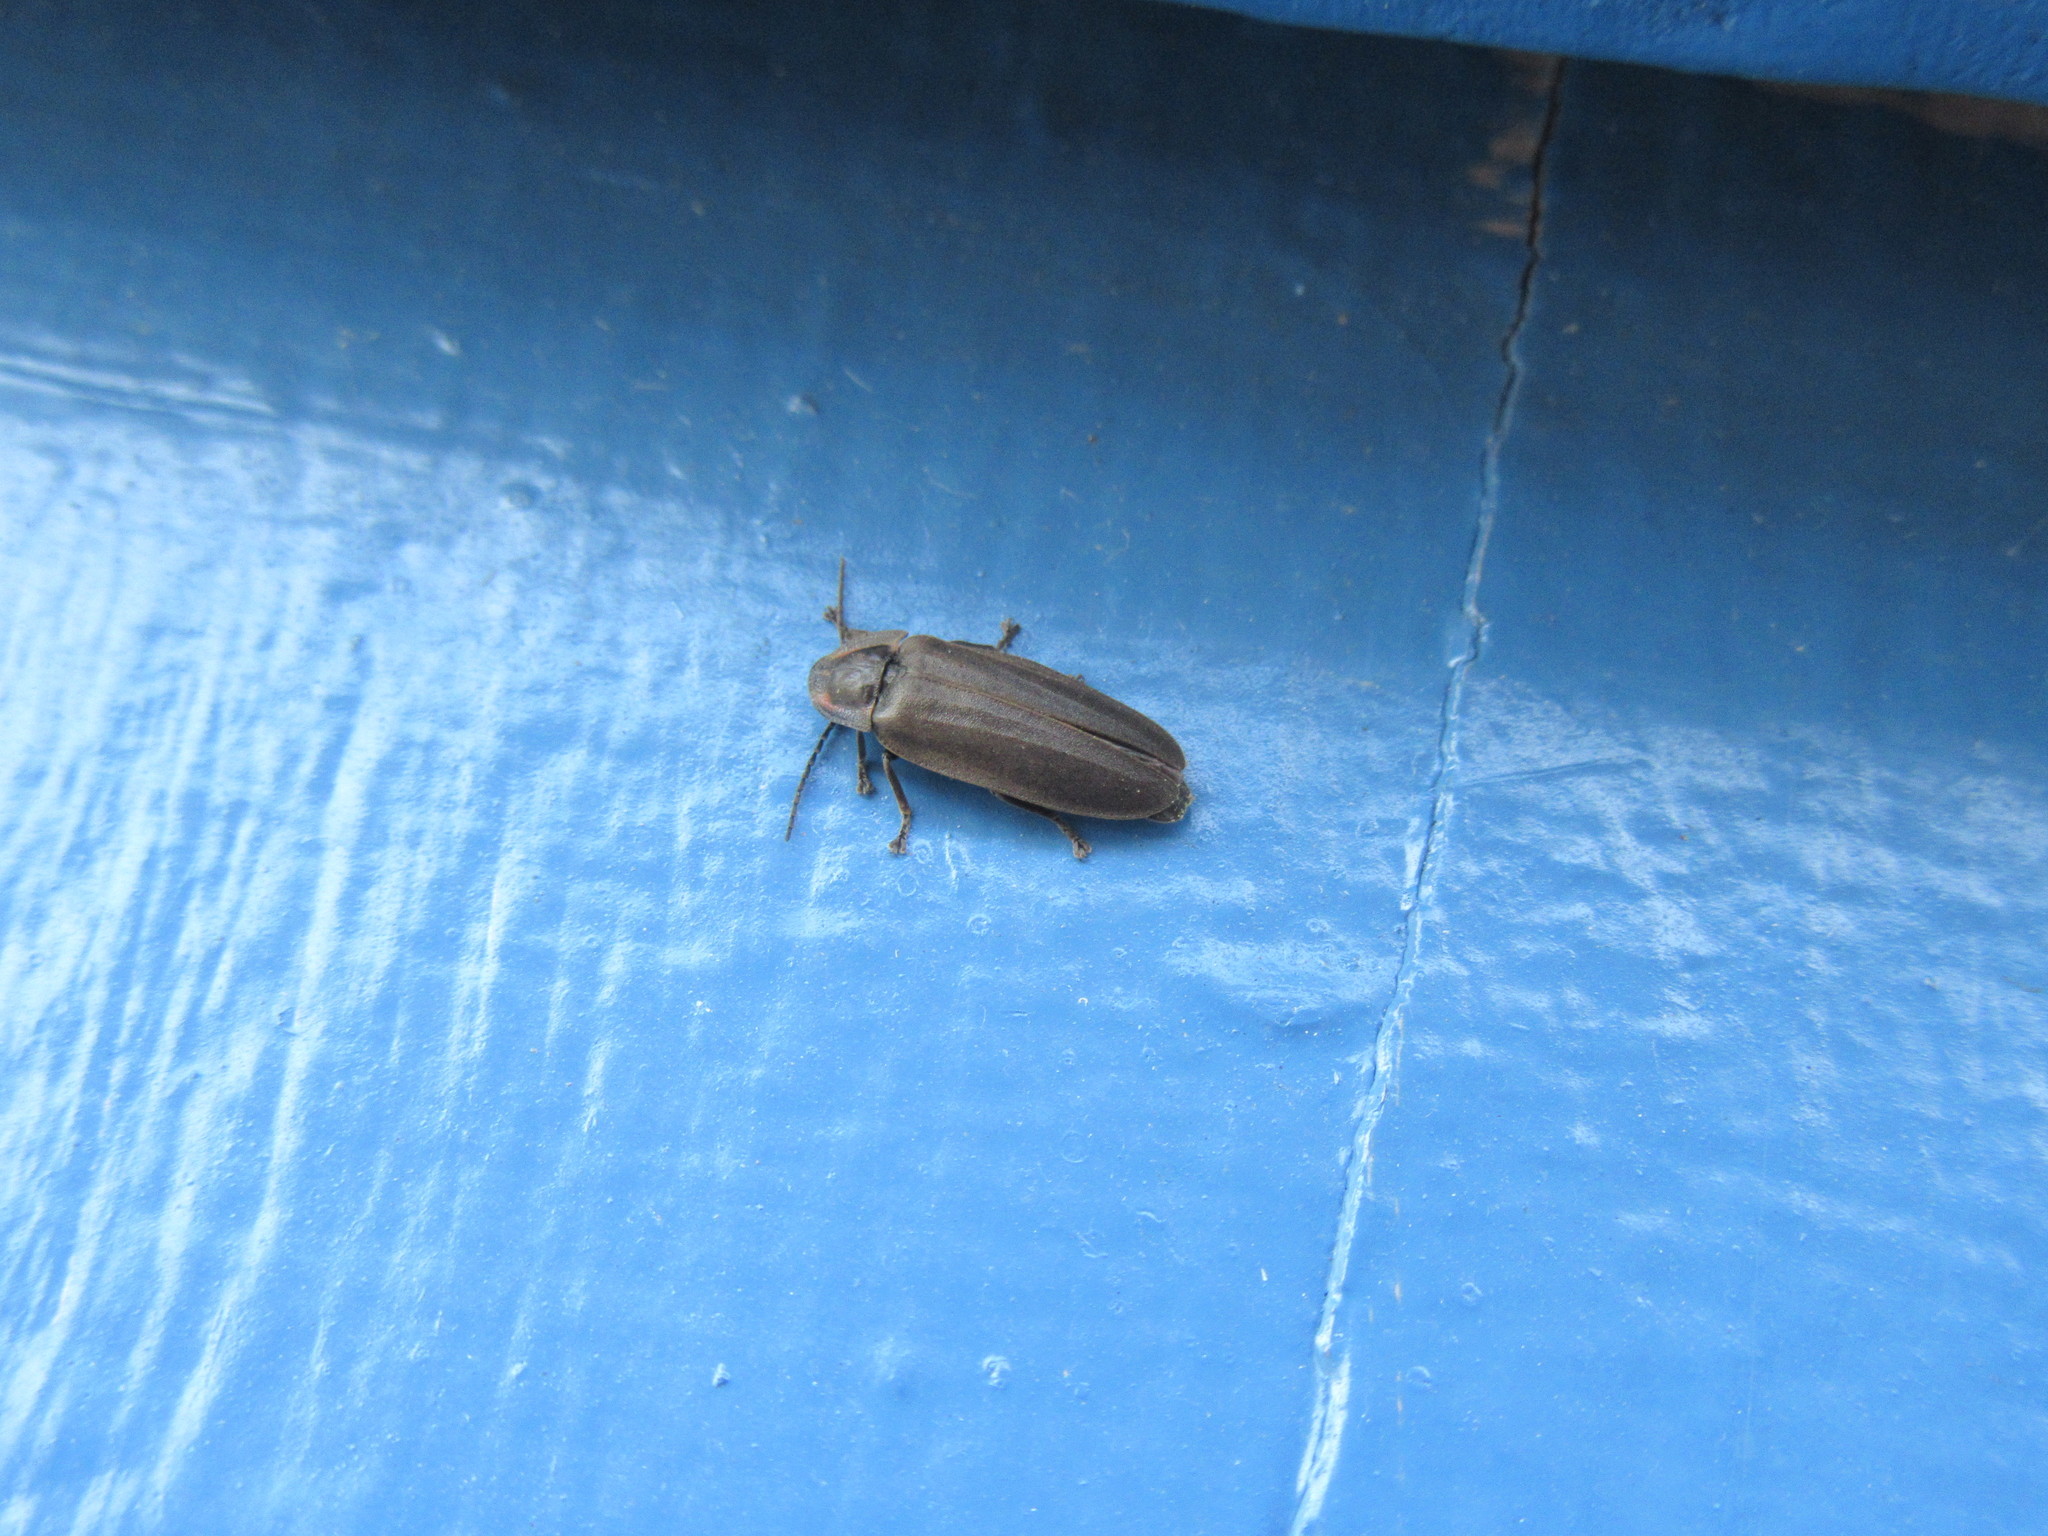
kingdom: Animalia
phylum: Arthropoda
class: Insecta
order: Coleoptera
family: Lampyridae
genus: Photinus
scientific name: Photinus corrusca
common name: Winter firefly
